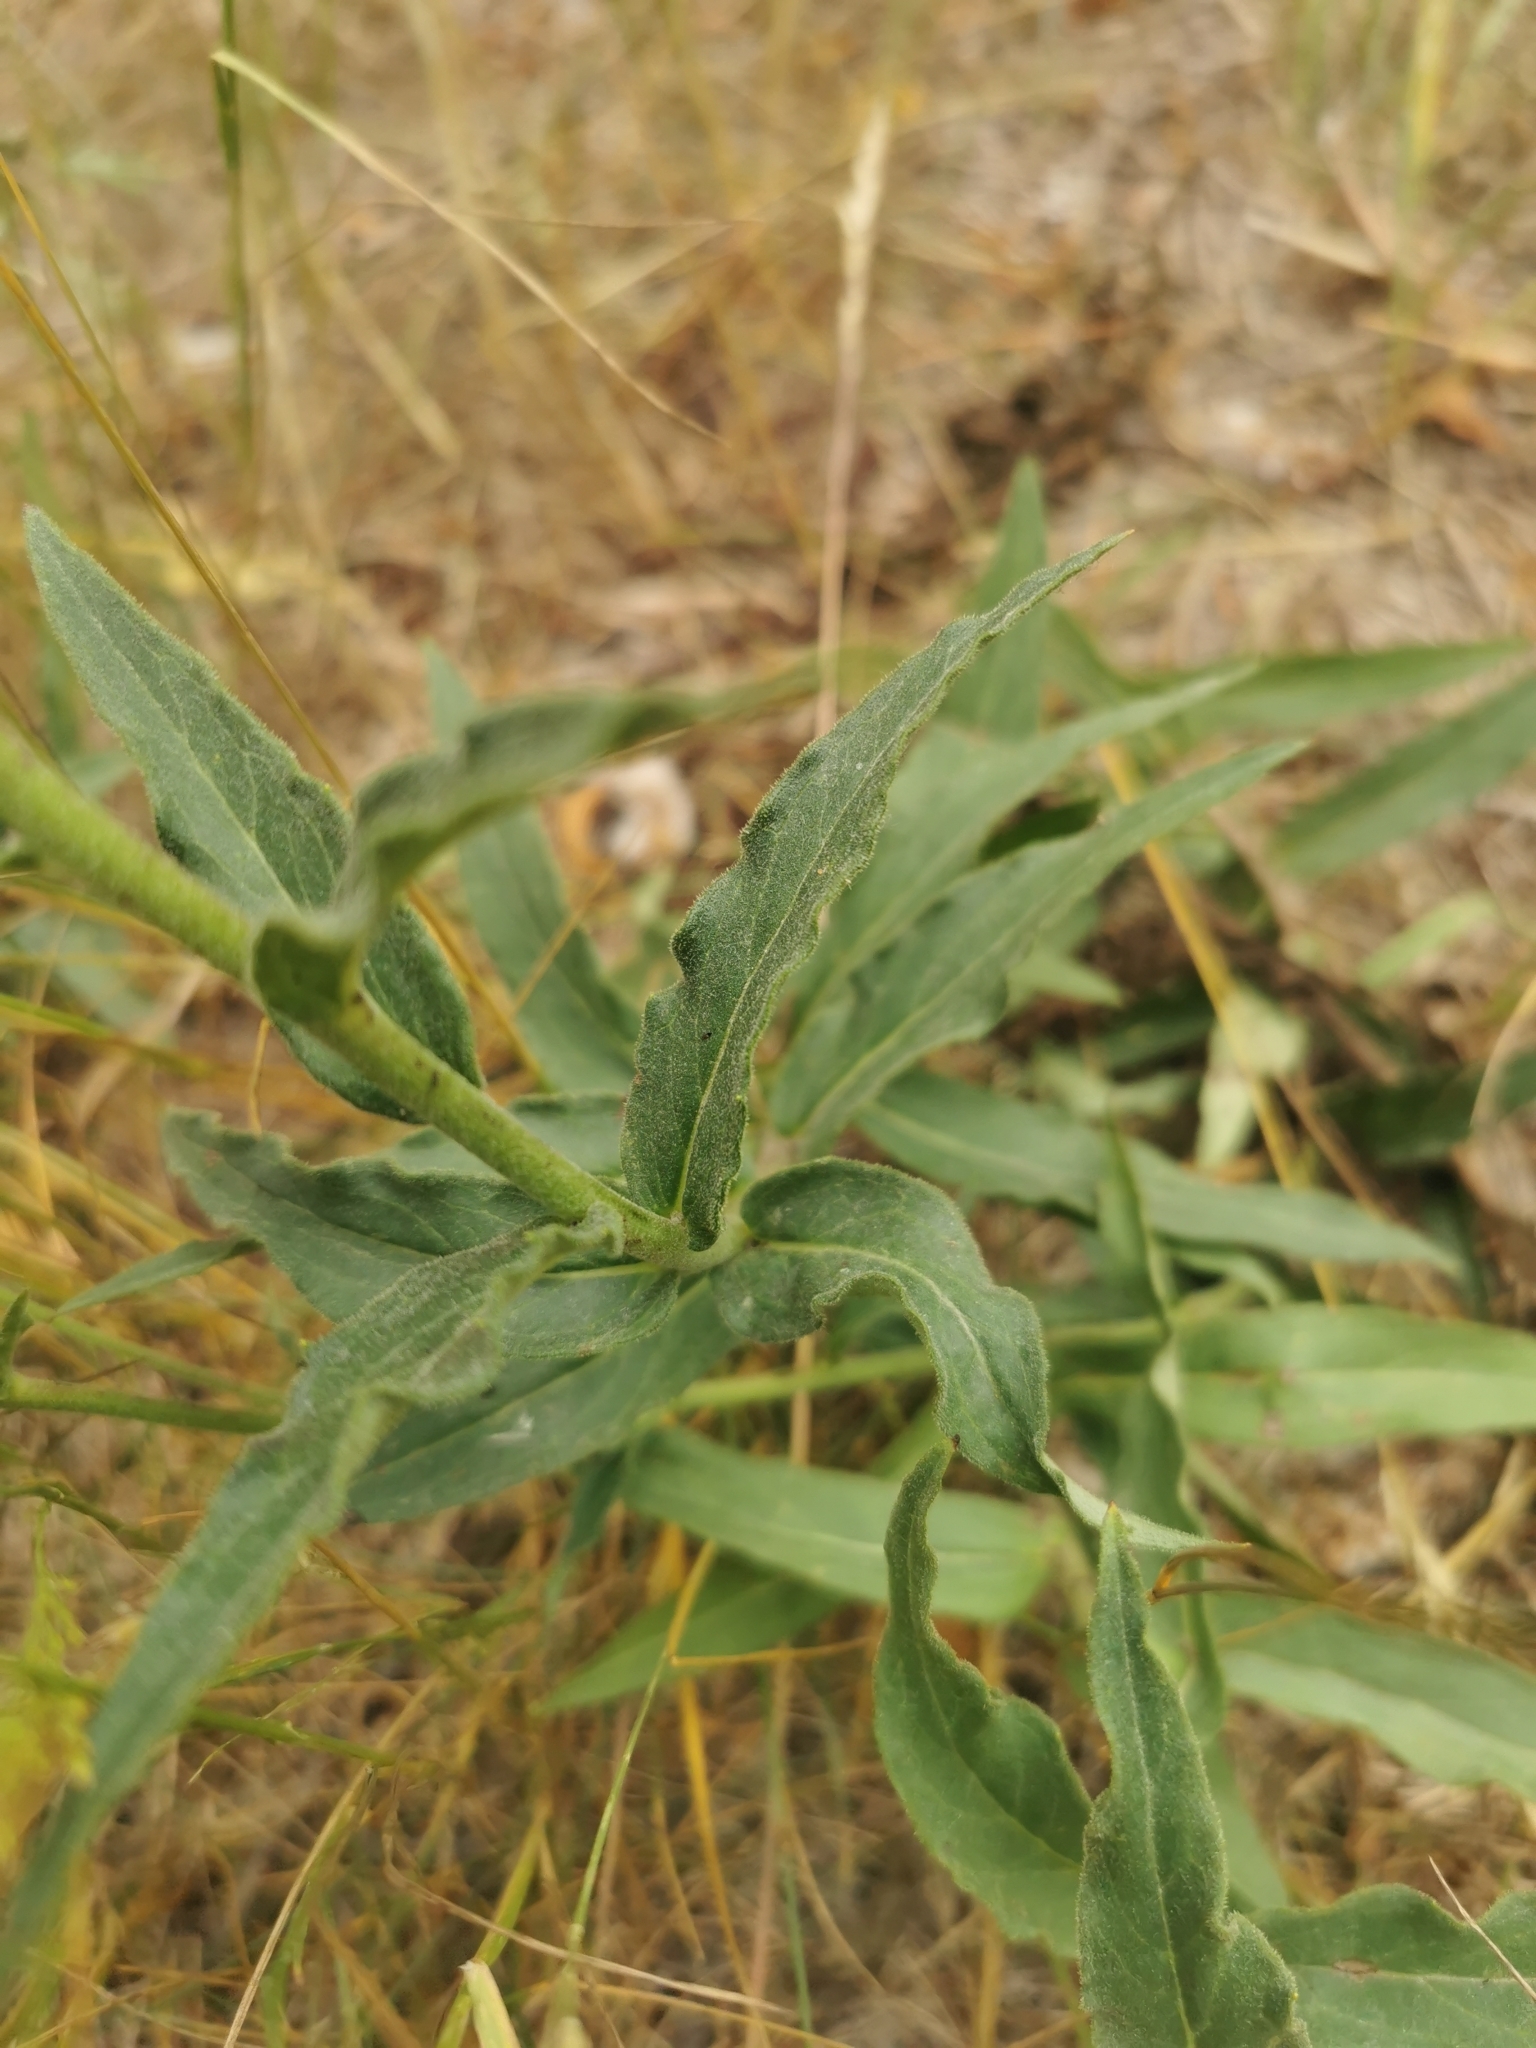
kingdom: Plantae
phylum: Tracheophyta
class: Magnoliopsida
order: Asterales
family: Asteraceae
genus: Hieracium
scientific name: Hieracium umbellatum
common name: Northern hawkweed
